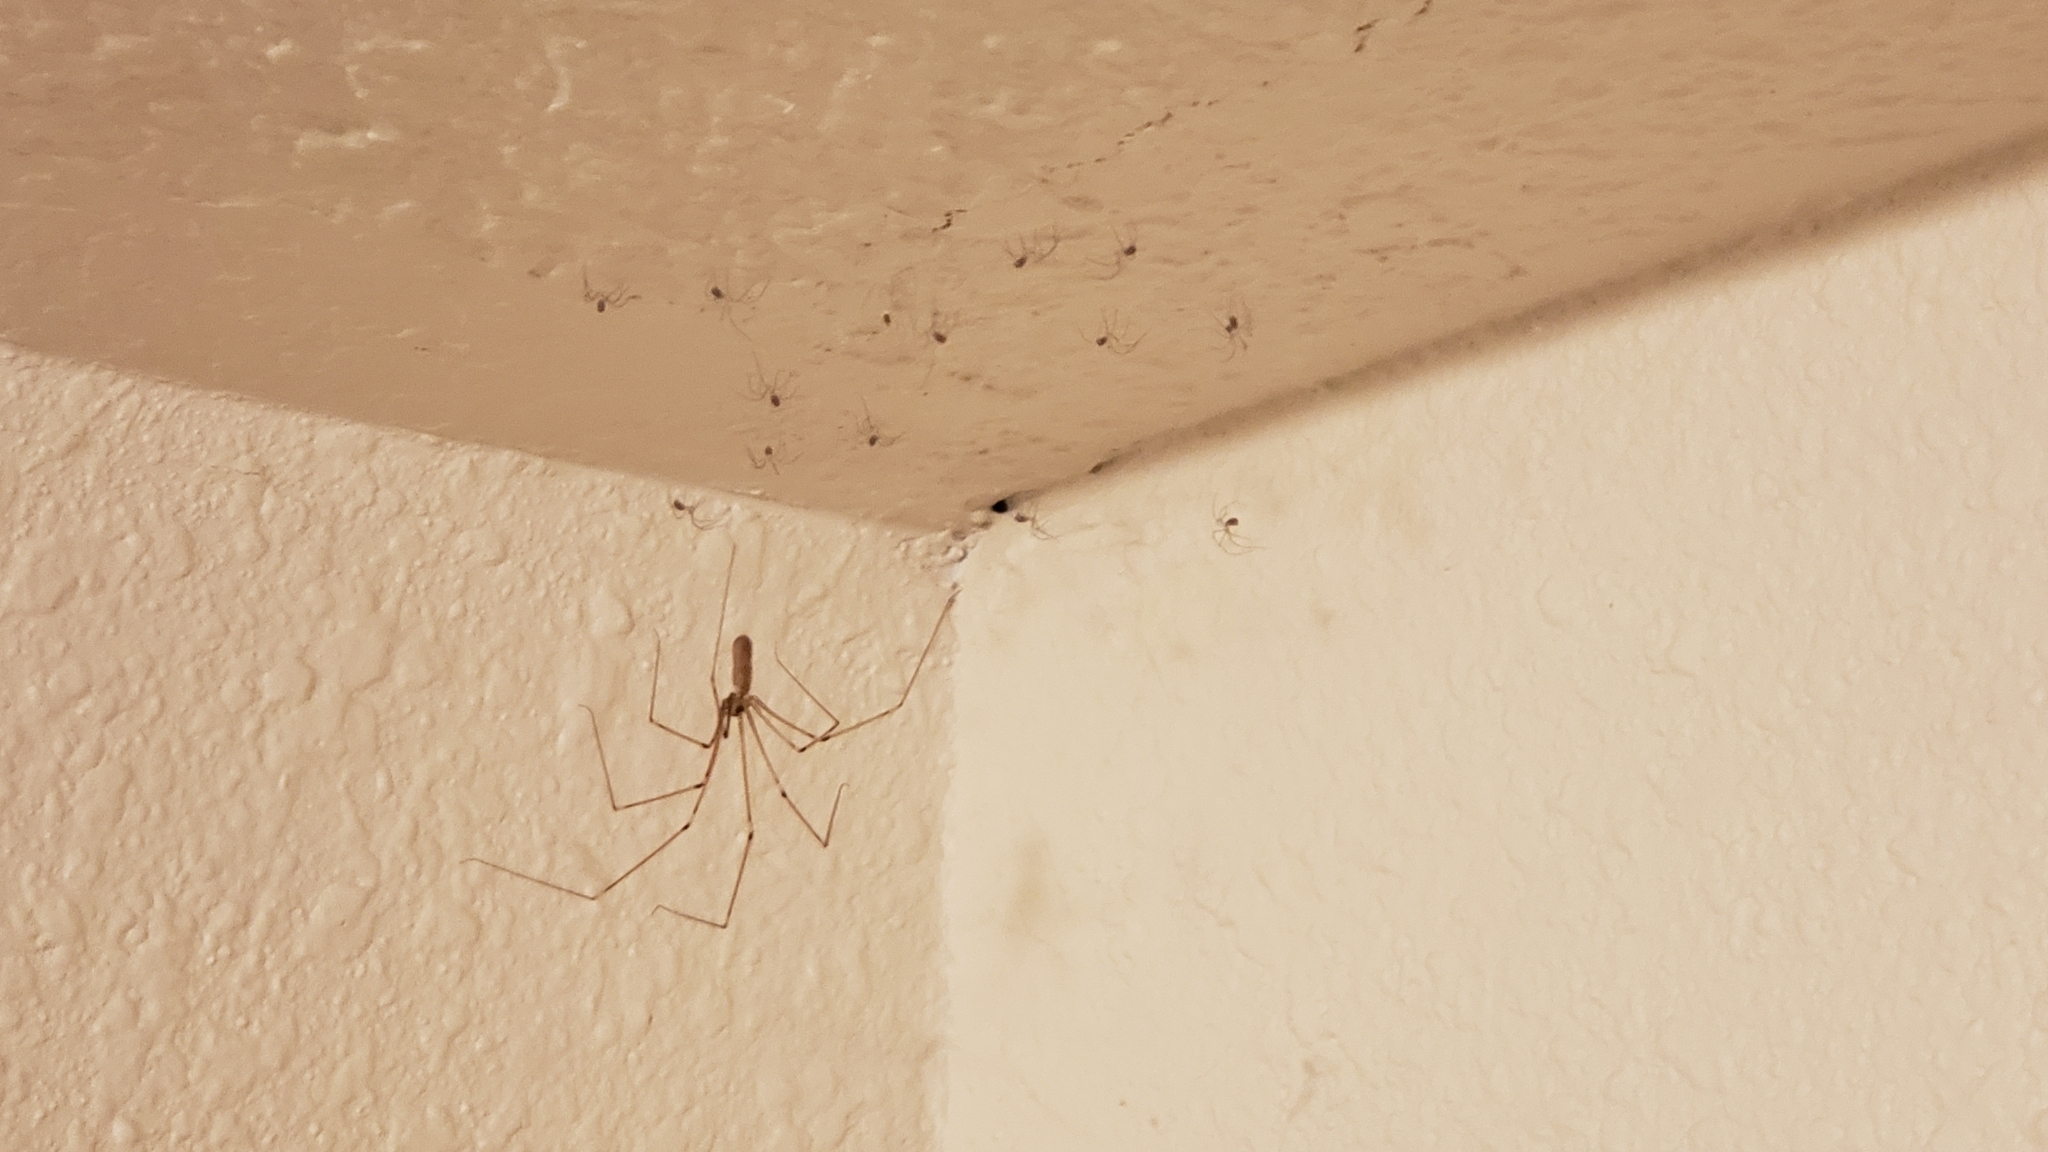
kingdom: Animalia
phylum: Arthropoda
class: Arachnida
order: Araneae
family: Pholcidae
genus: Pholcus
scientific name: Pholcus phalangioides
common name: Longbodied cellar spider
